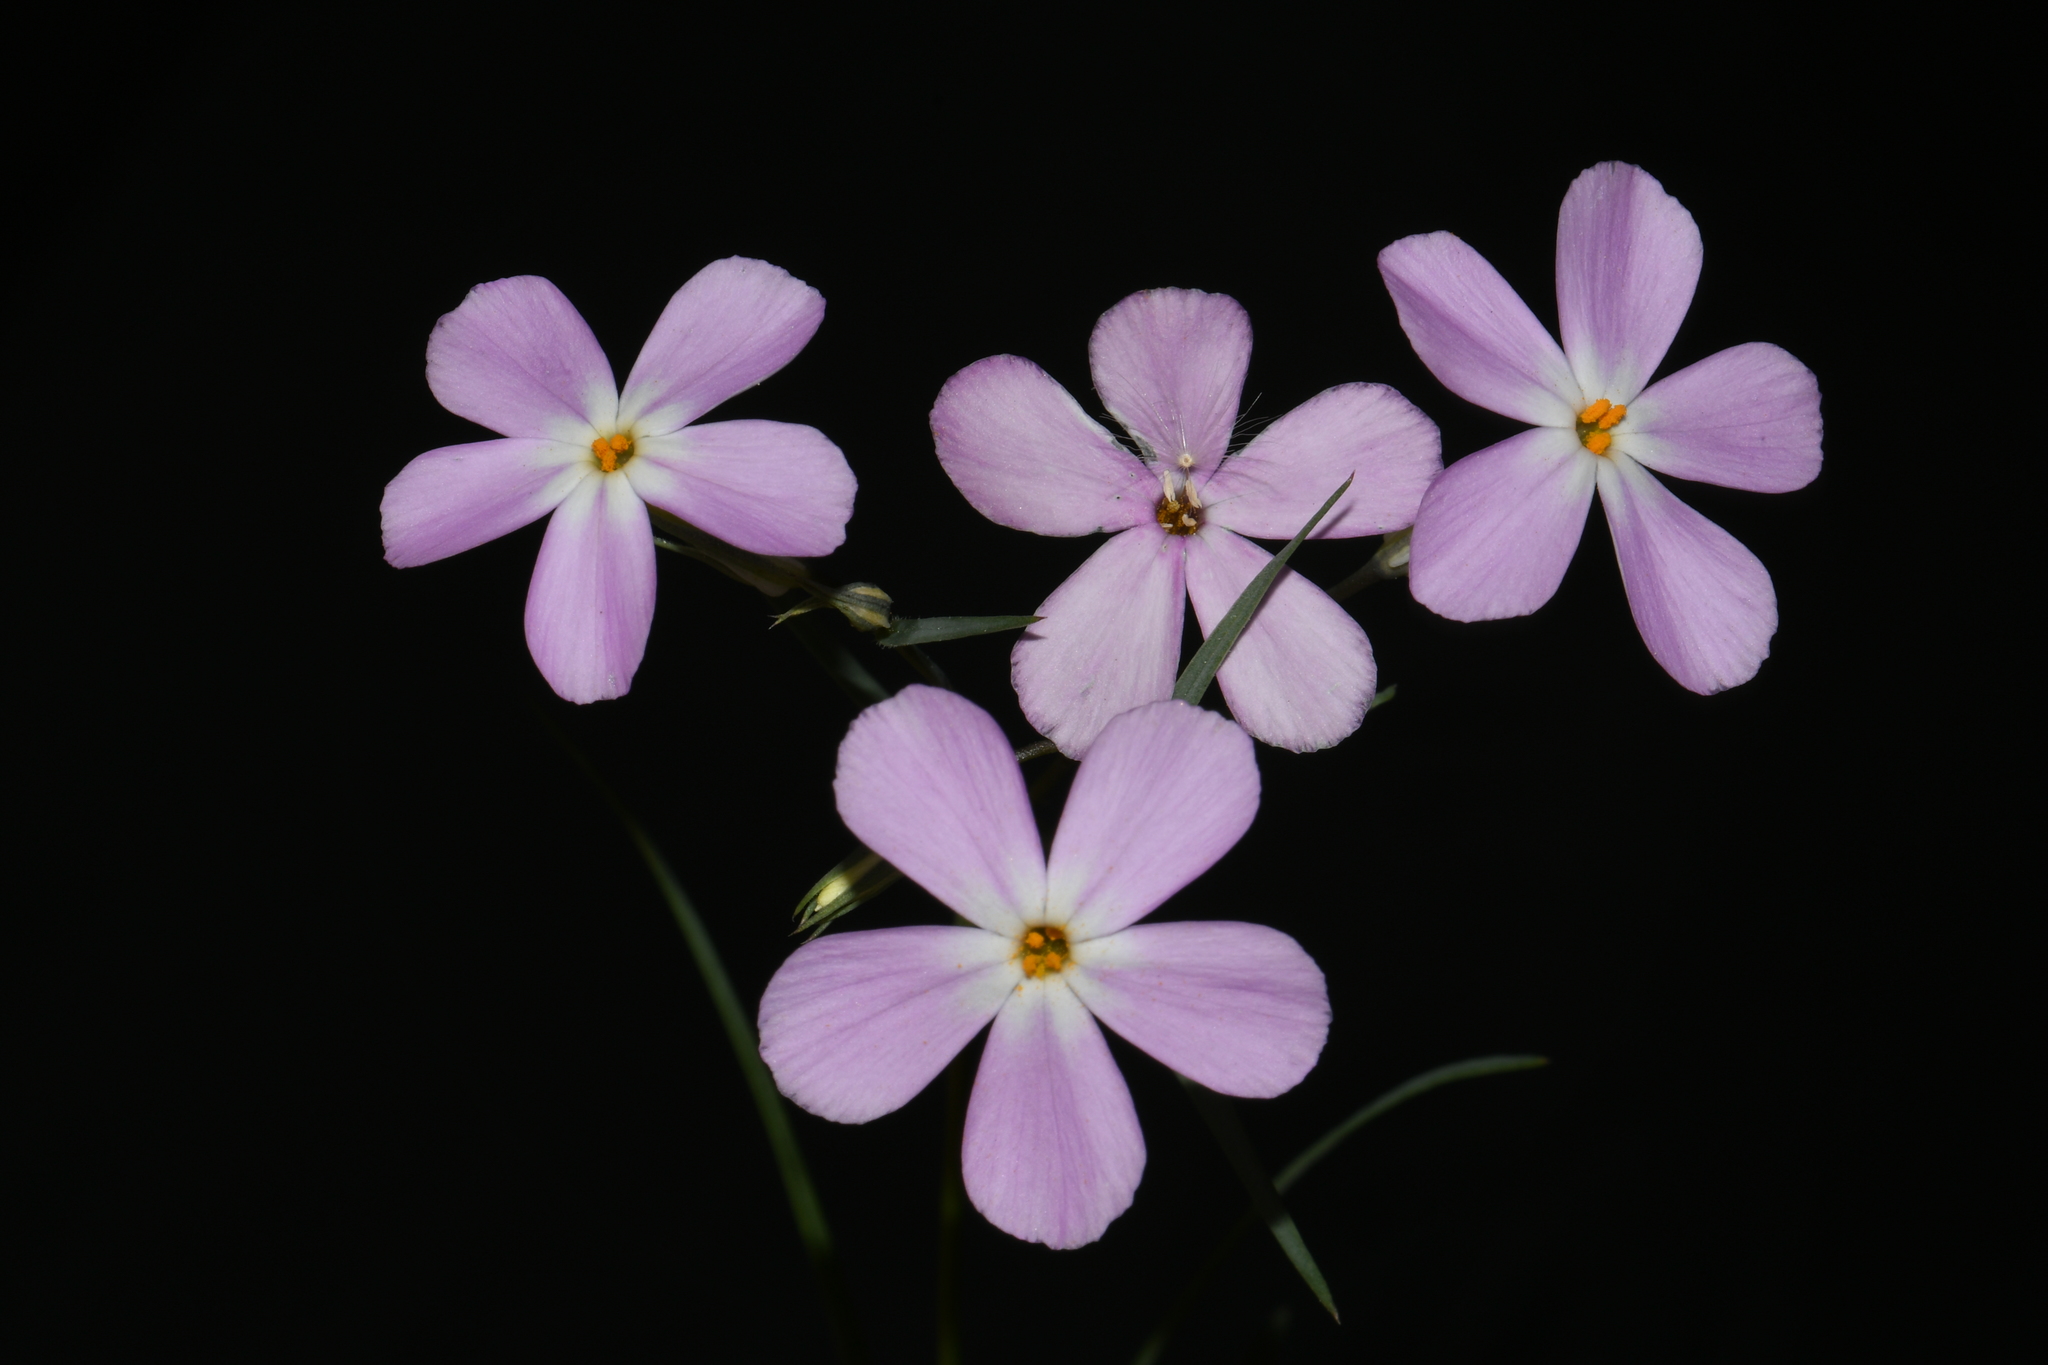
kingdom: Plantae
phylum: Tracheophyta
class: Magnoliopsida
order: Ericales
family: Polemoniaceae
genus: Phlox
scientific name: Phlox longifolia
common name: Longleaf phlox
